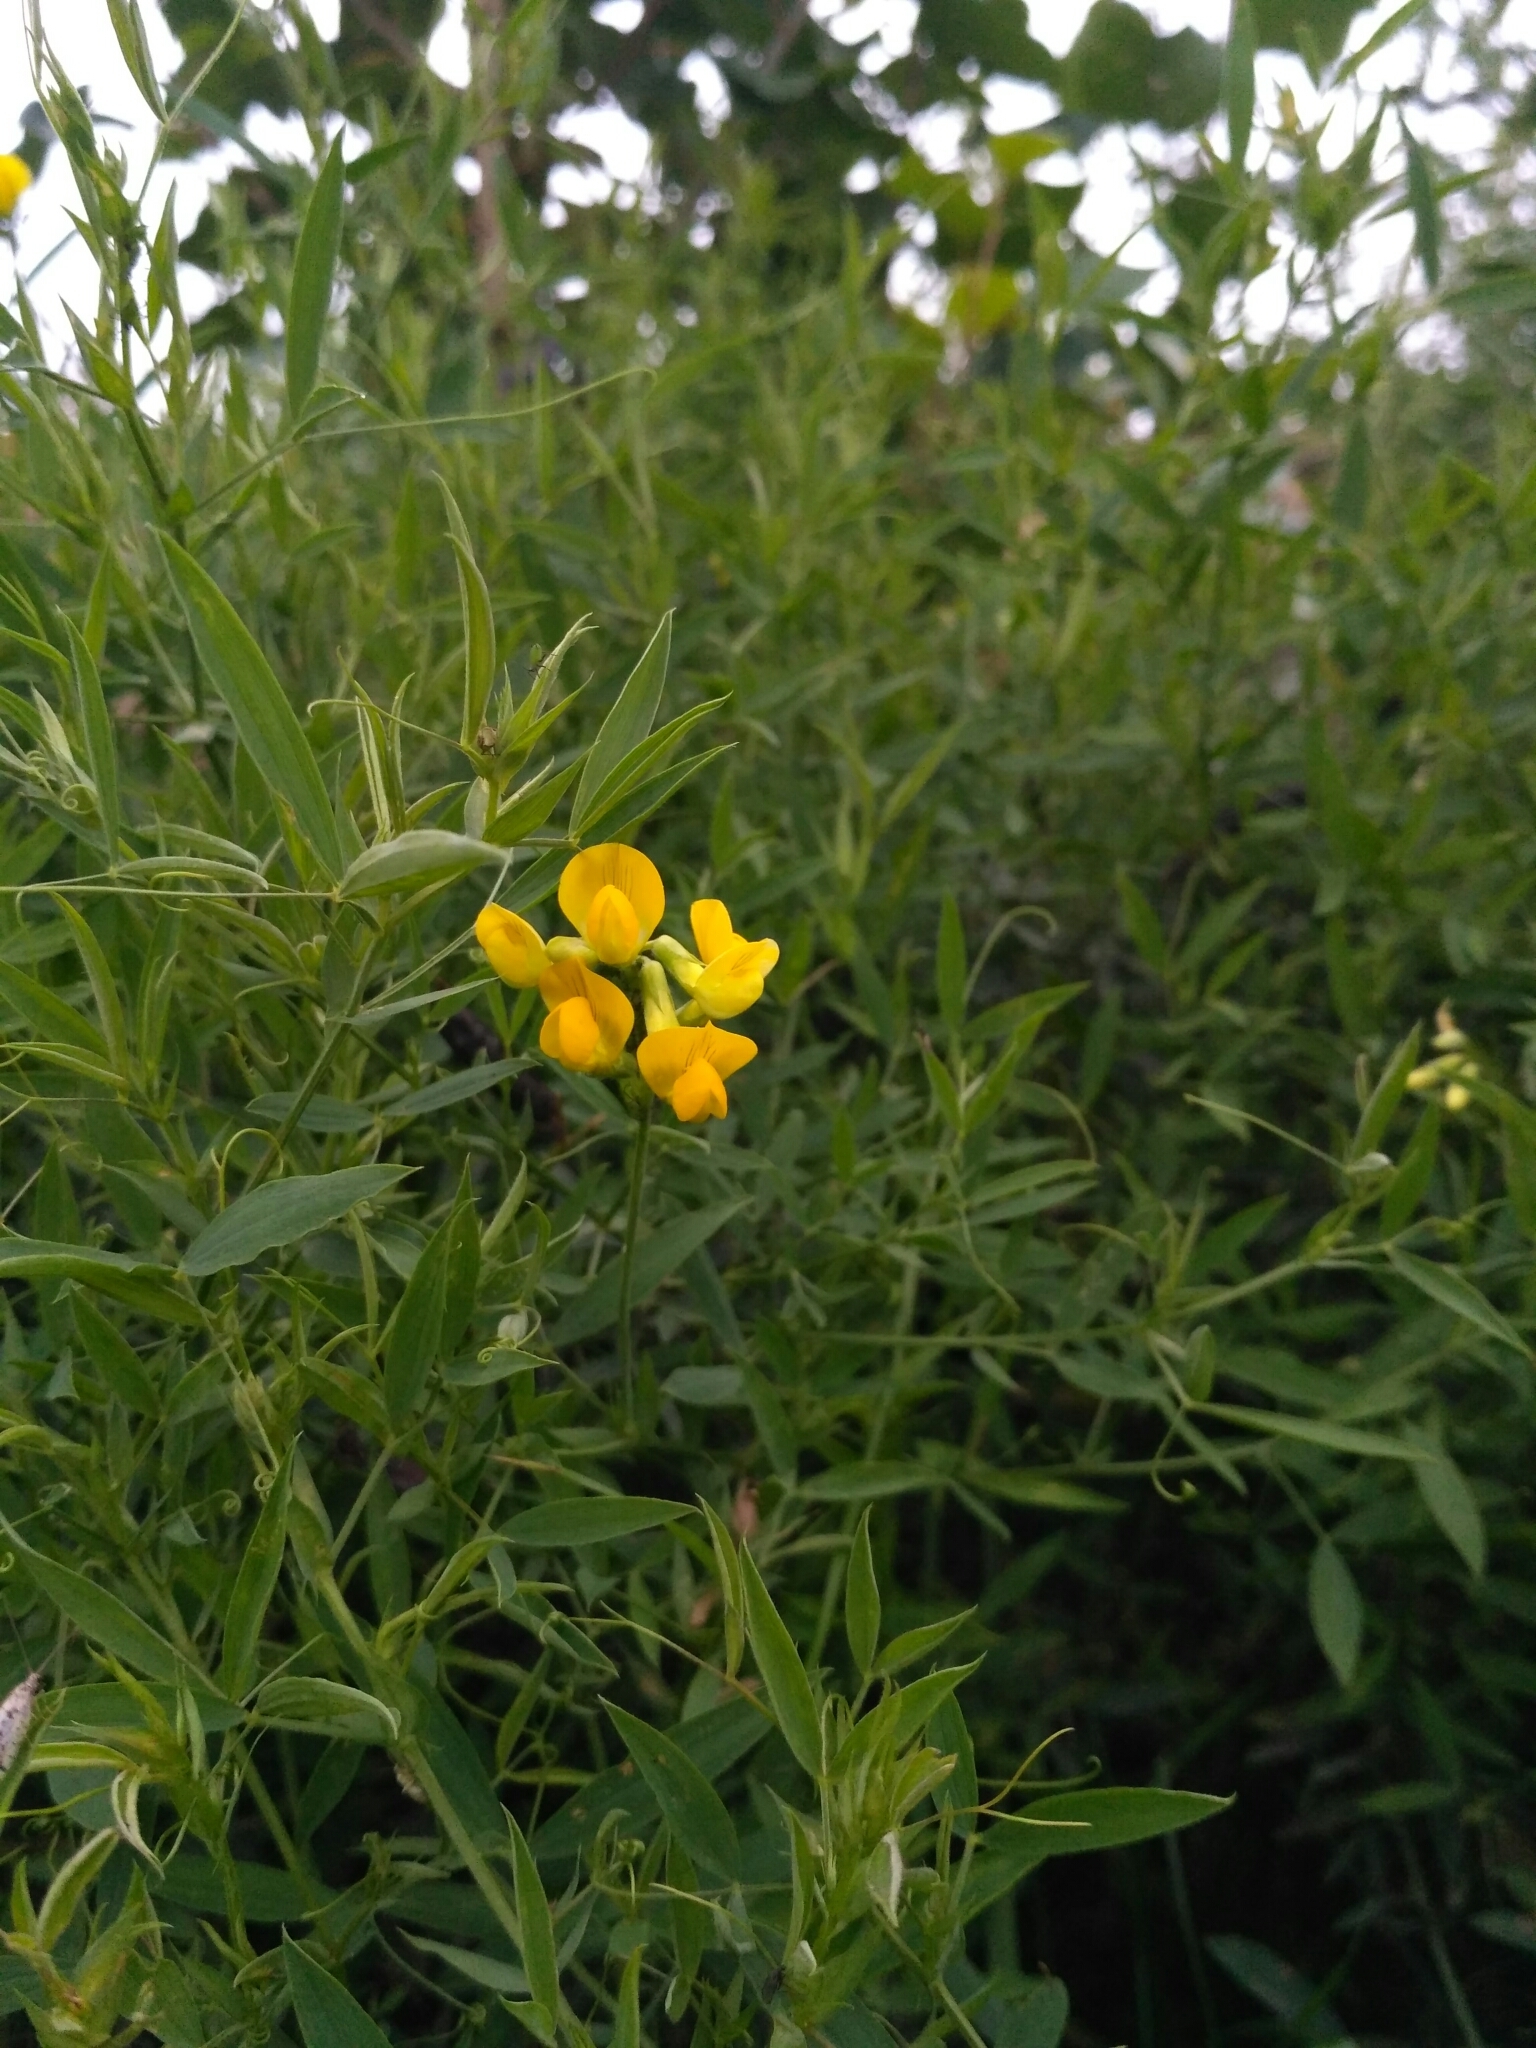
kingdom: Plantae
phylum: Tracheophyta
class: Magnoliopsida
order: Fabales
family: Fabaceae
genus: Lathyrus
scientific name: Lathyrus pratensis
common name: Meadow vetchling
